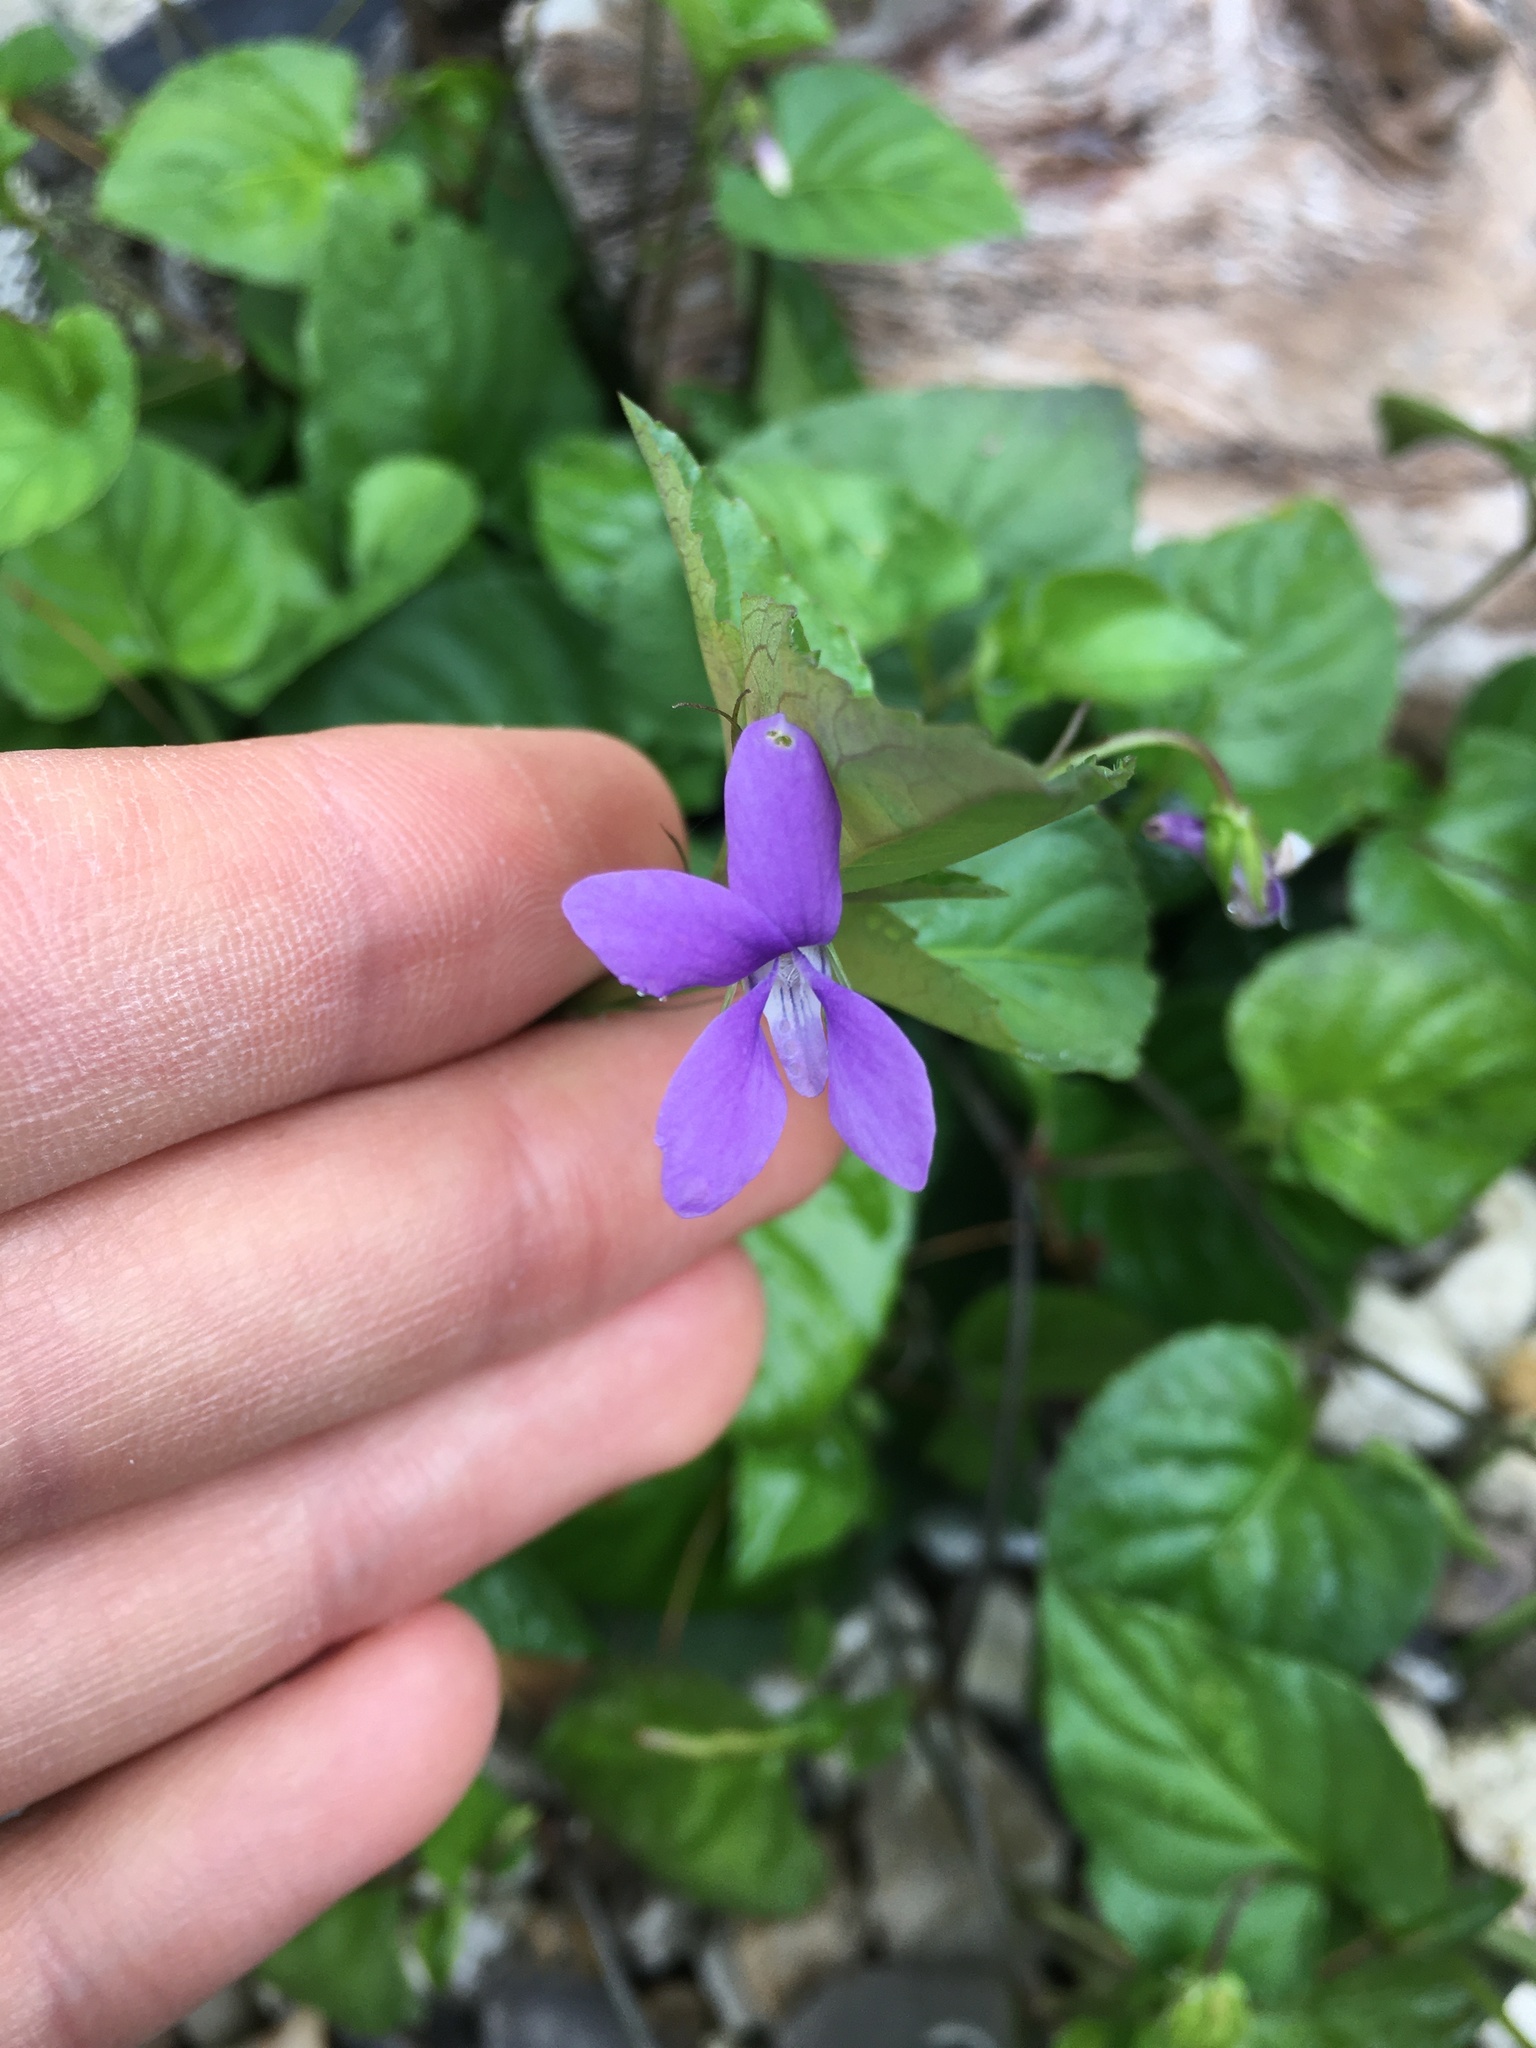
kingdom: Plantae
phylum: Tracheophyta
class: Magnoliopsida
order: Malpighiales
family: Violaceae
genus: Viola
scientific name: Viola reichenbachiana
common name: Early dog-violet
